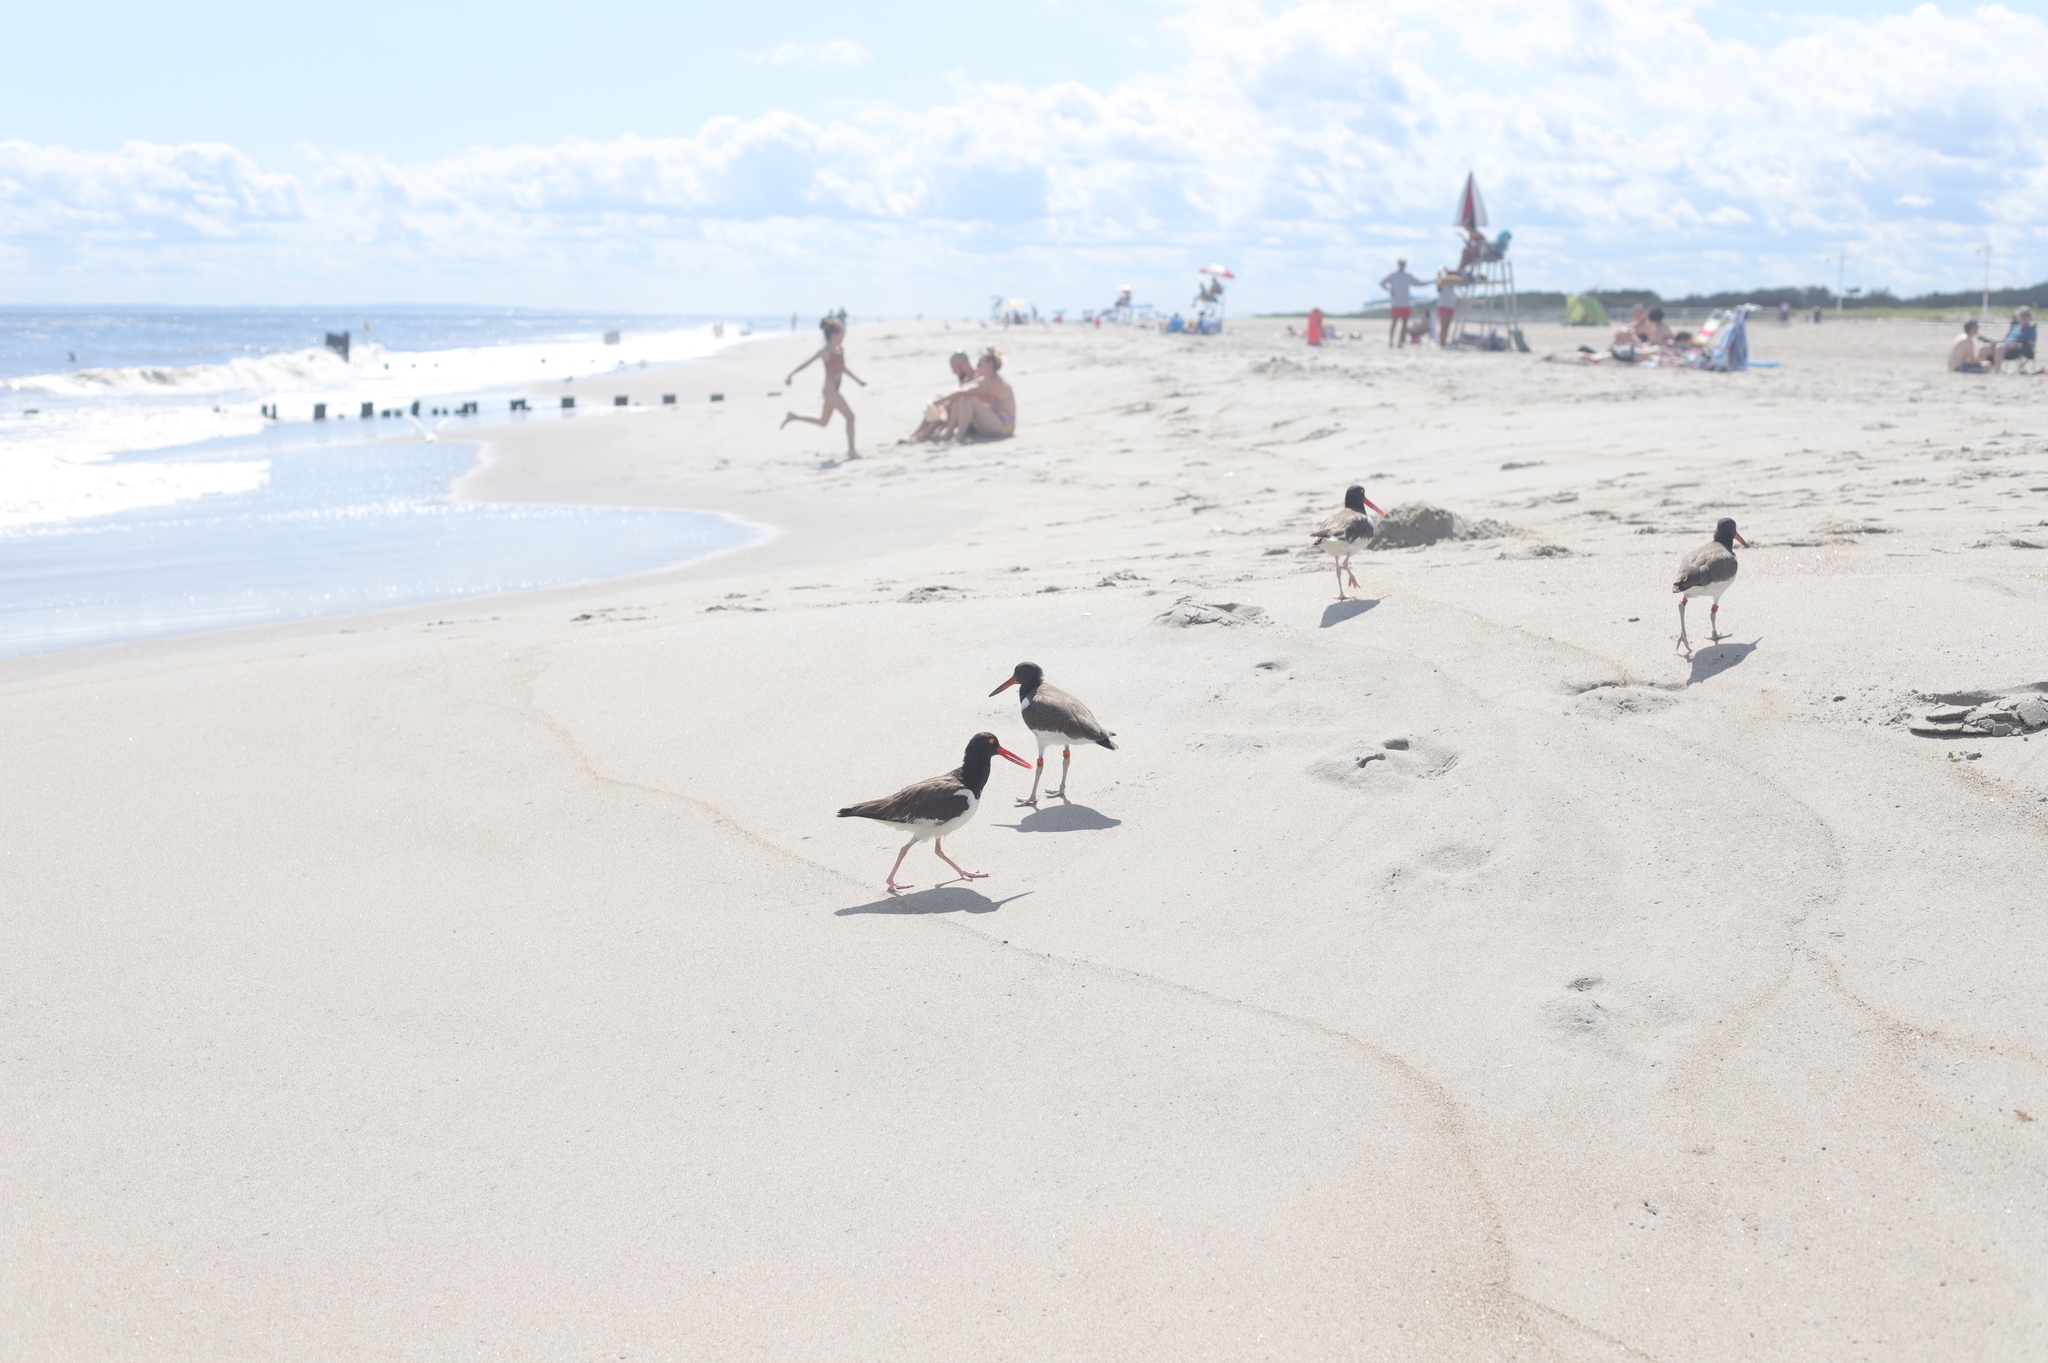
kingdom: Animalia
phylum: Chordata
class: Aves
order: Charadriiformes
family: Haematopodidae
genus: Haematopus
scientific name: Haematopus palliatus
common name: American oystercatcher
